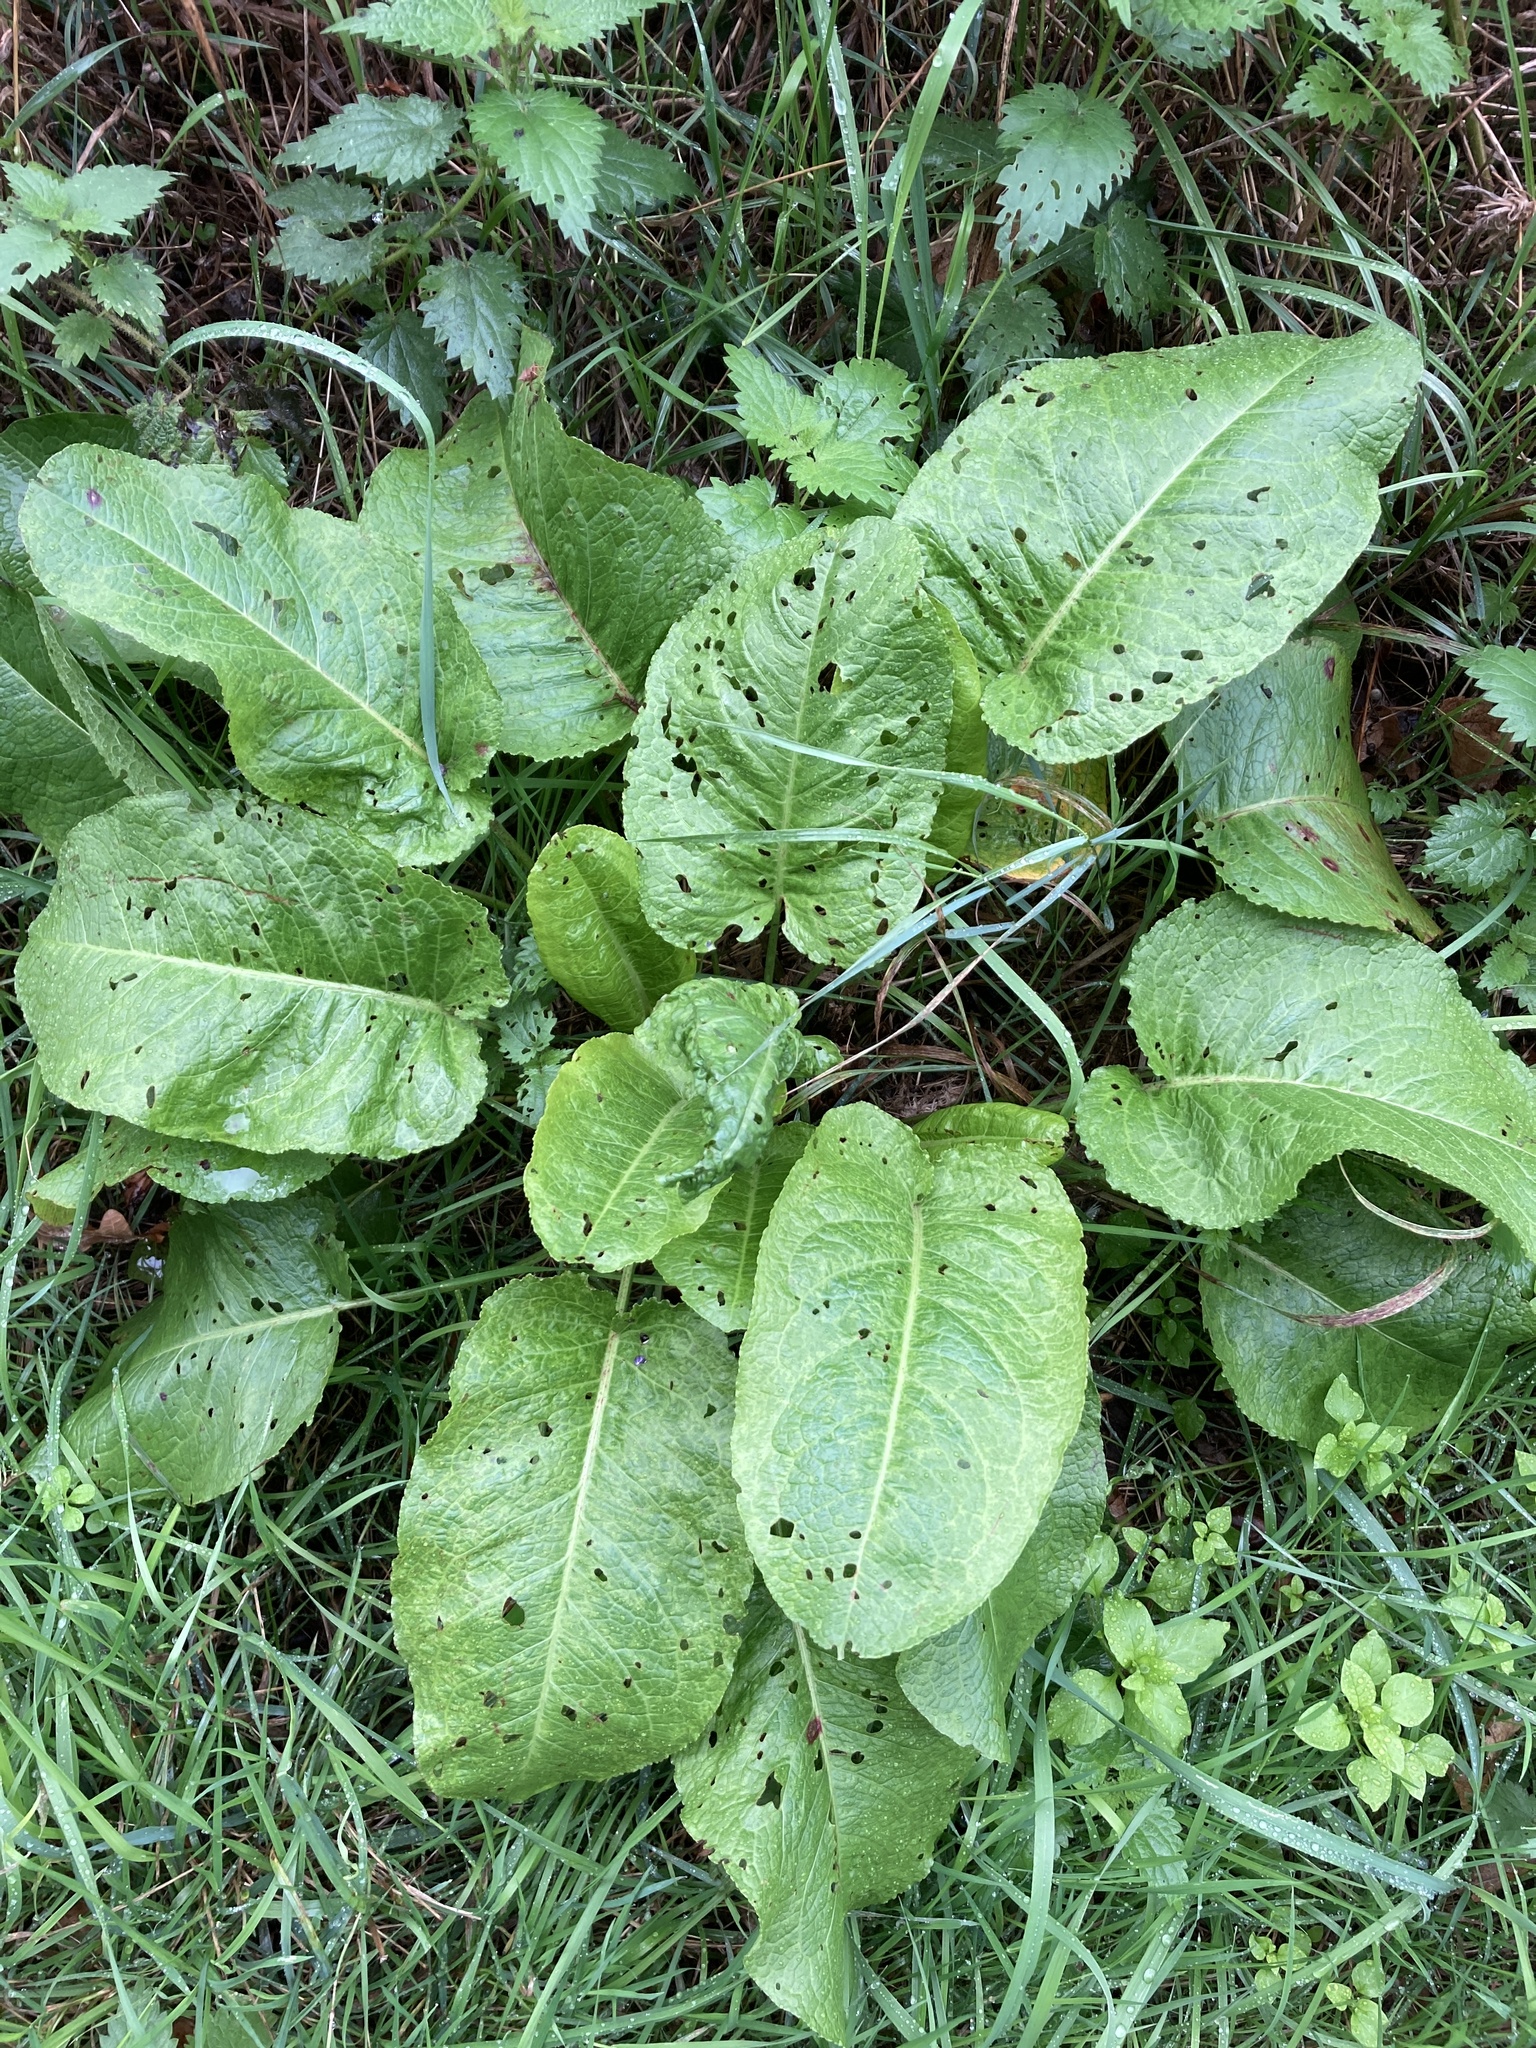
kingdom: Plantae
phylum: Tracheophyta
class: Magnoliopsida
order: Caryophyllales
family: Polygonaceae
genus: Rumex
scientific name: Rumex obtusifolius
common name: Bitter dock
